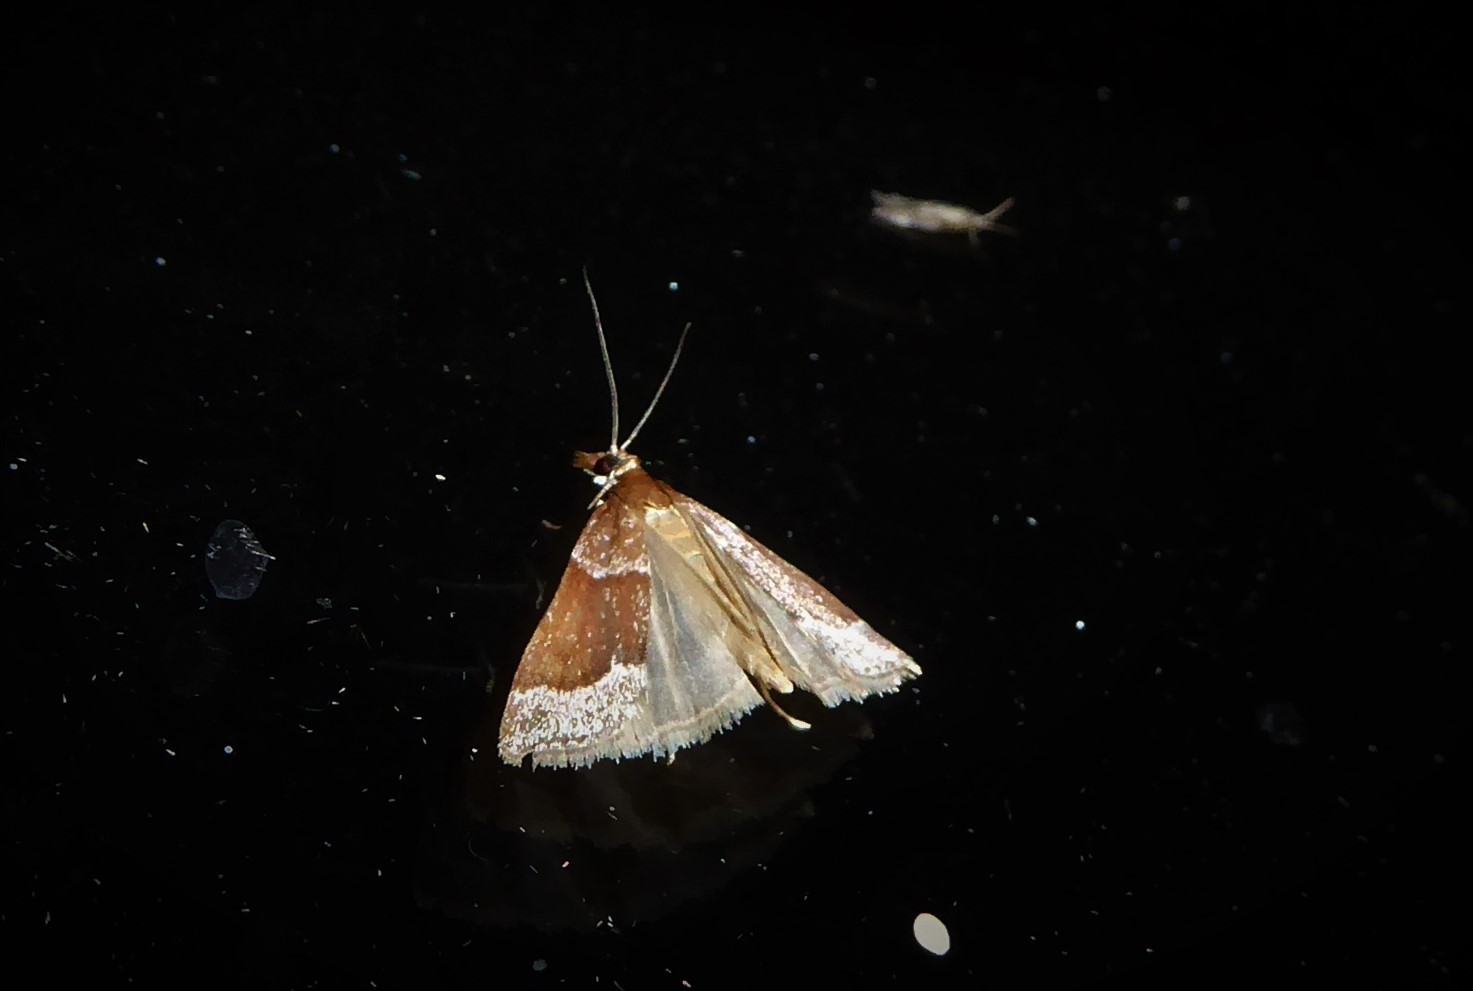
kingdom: Animalia
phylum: Arthropoda
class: Insecta
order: Lepidoptera
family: Crambidae
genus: Eudonia
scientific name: Eudonia feredayi
